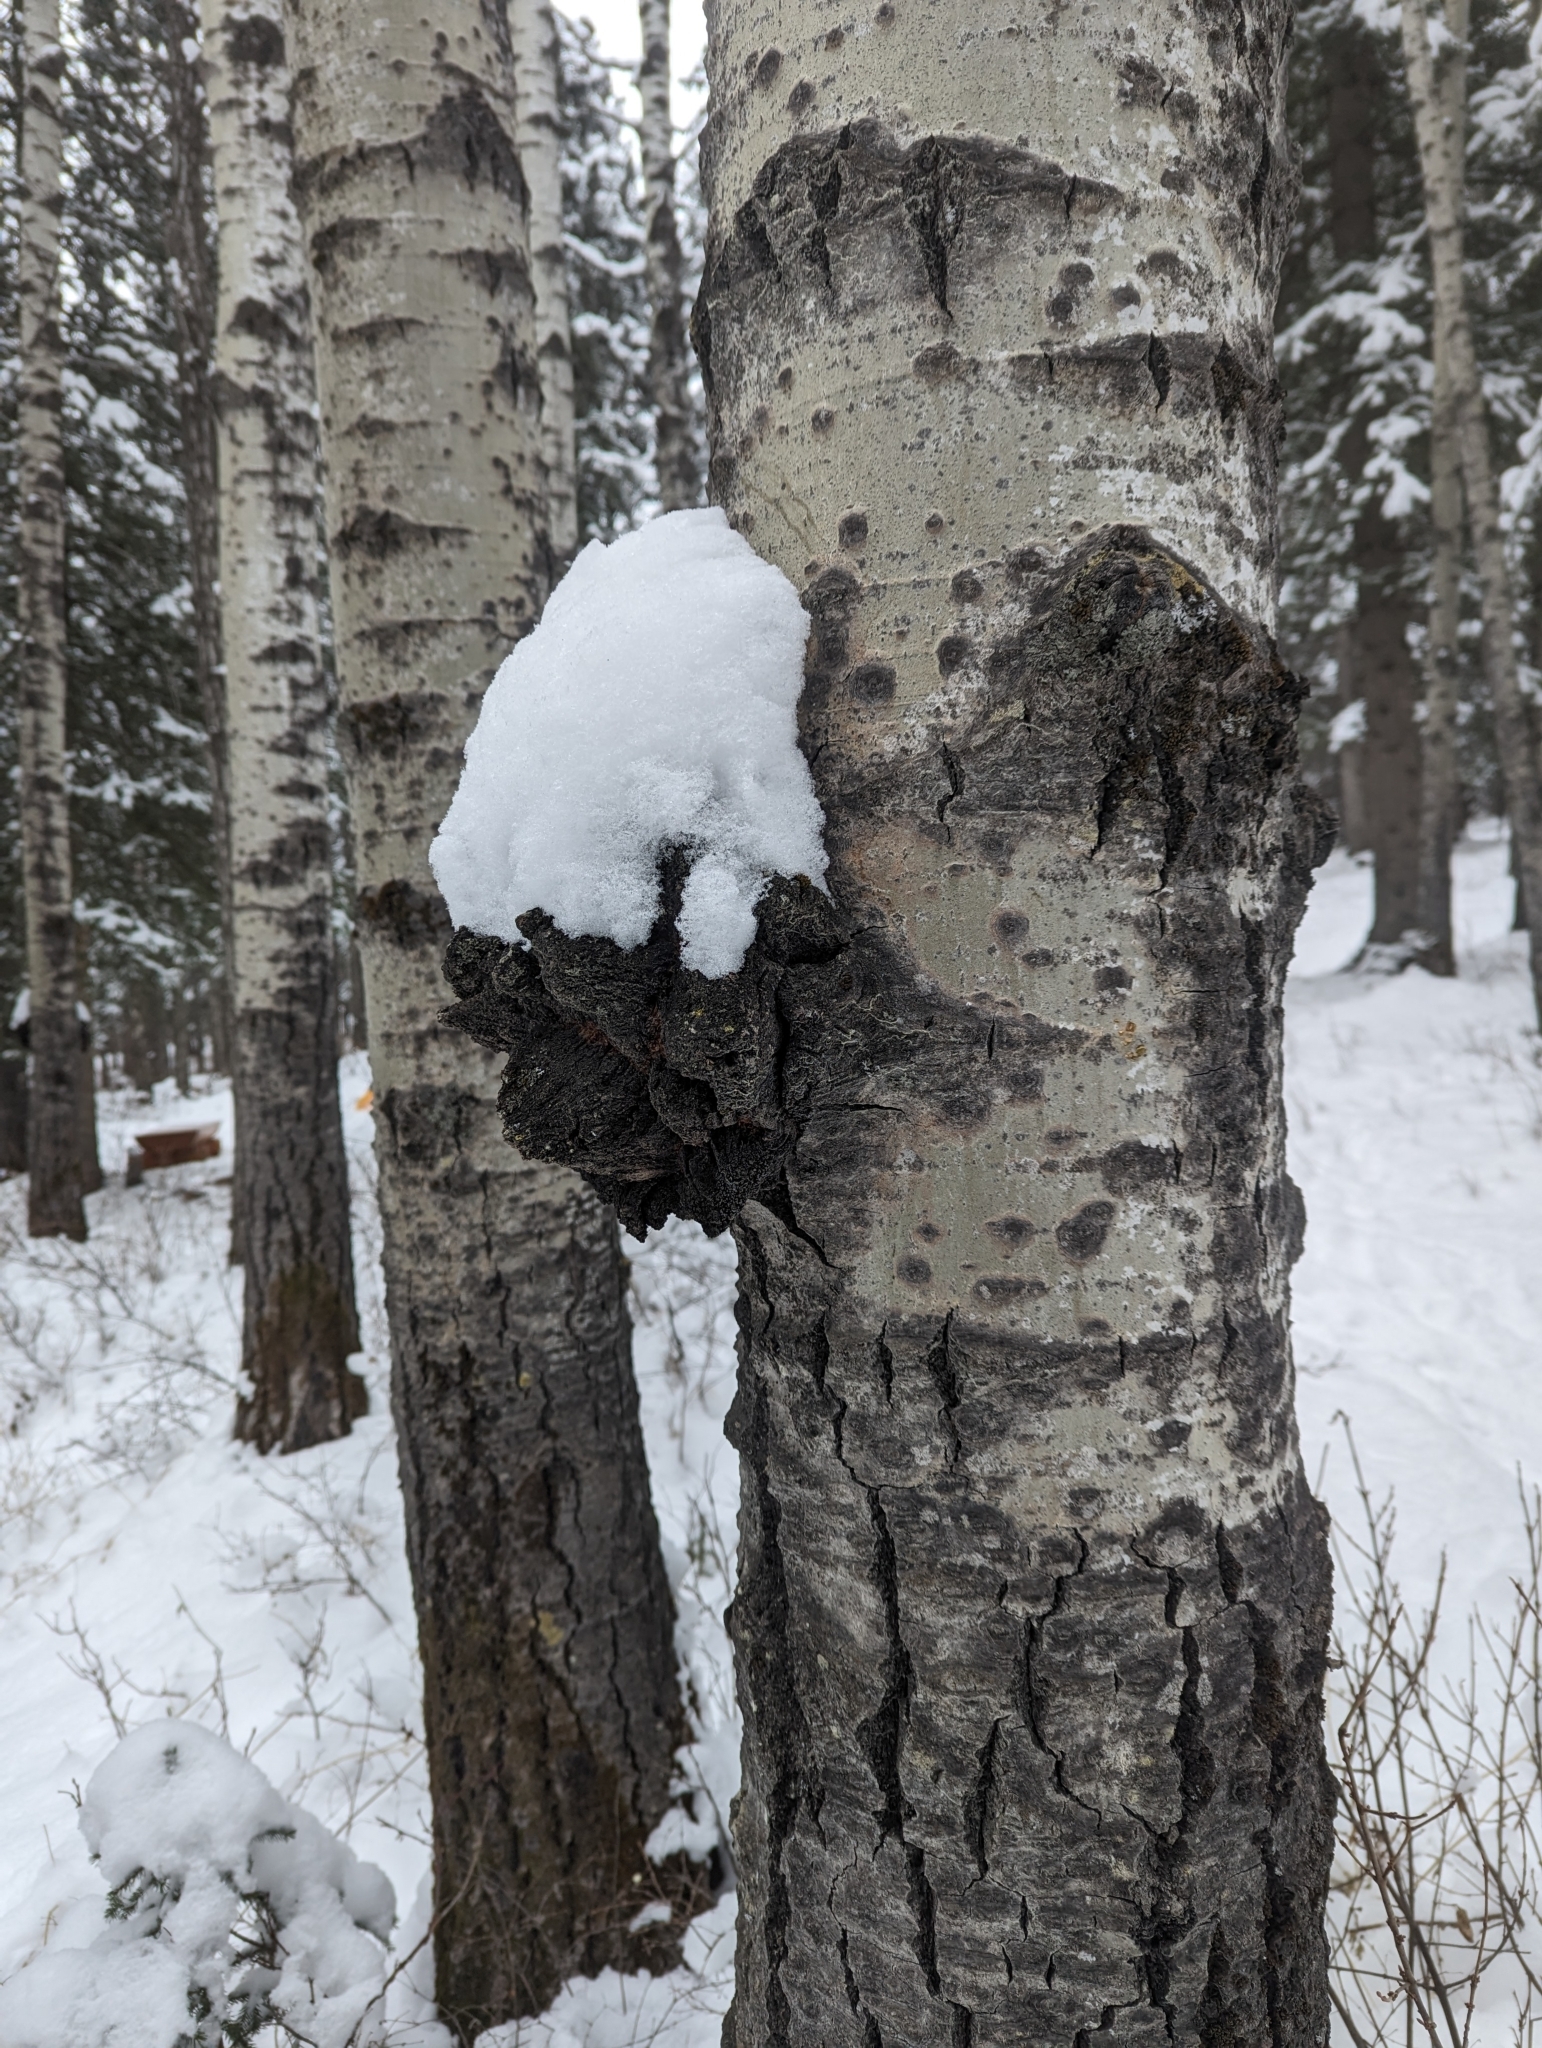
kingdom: Fungi
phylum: Ascomycota
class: Dothideomycetes
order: Botryosphaeriales
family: Botryosphaeriaceae
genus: Diplodia
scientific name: Diplodia tumefaciens
